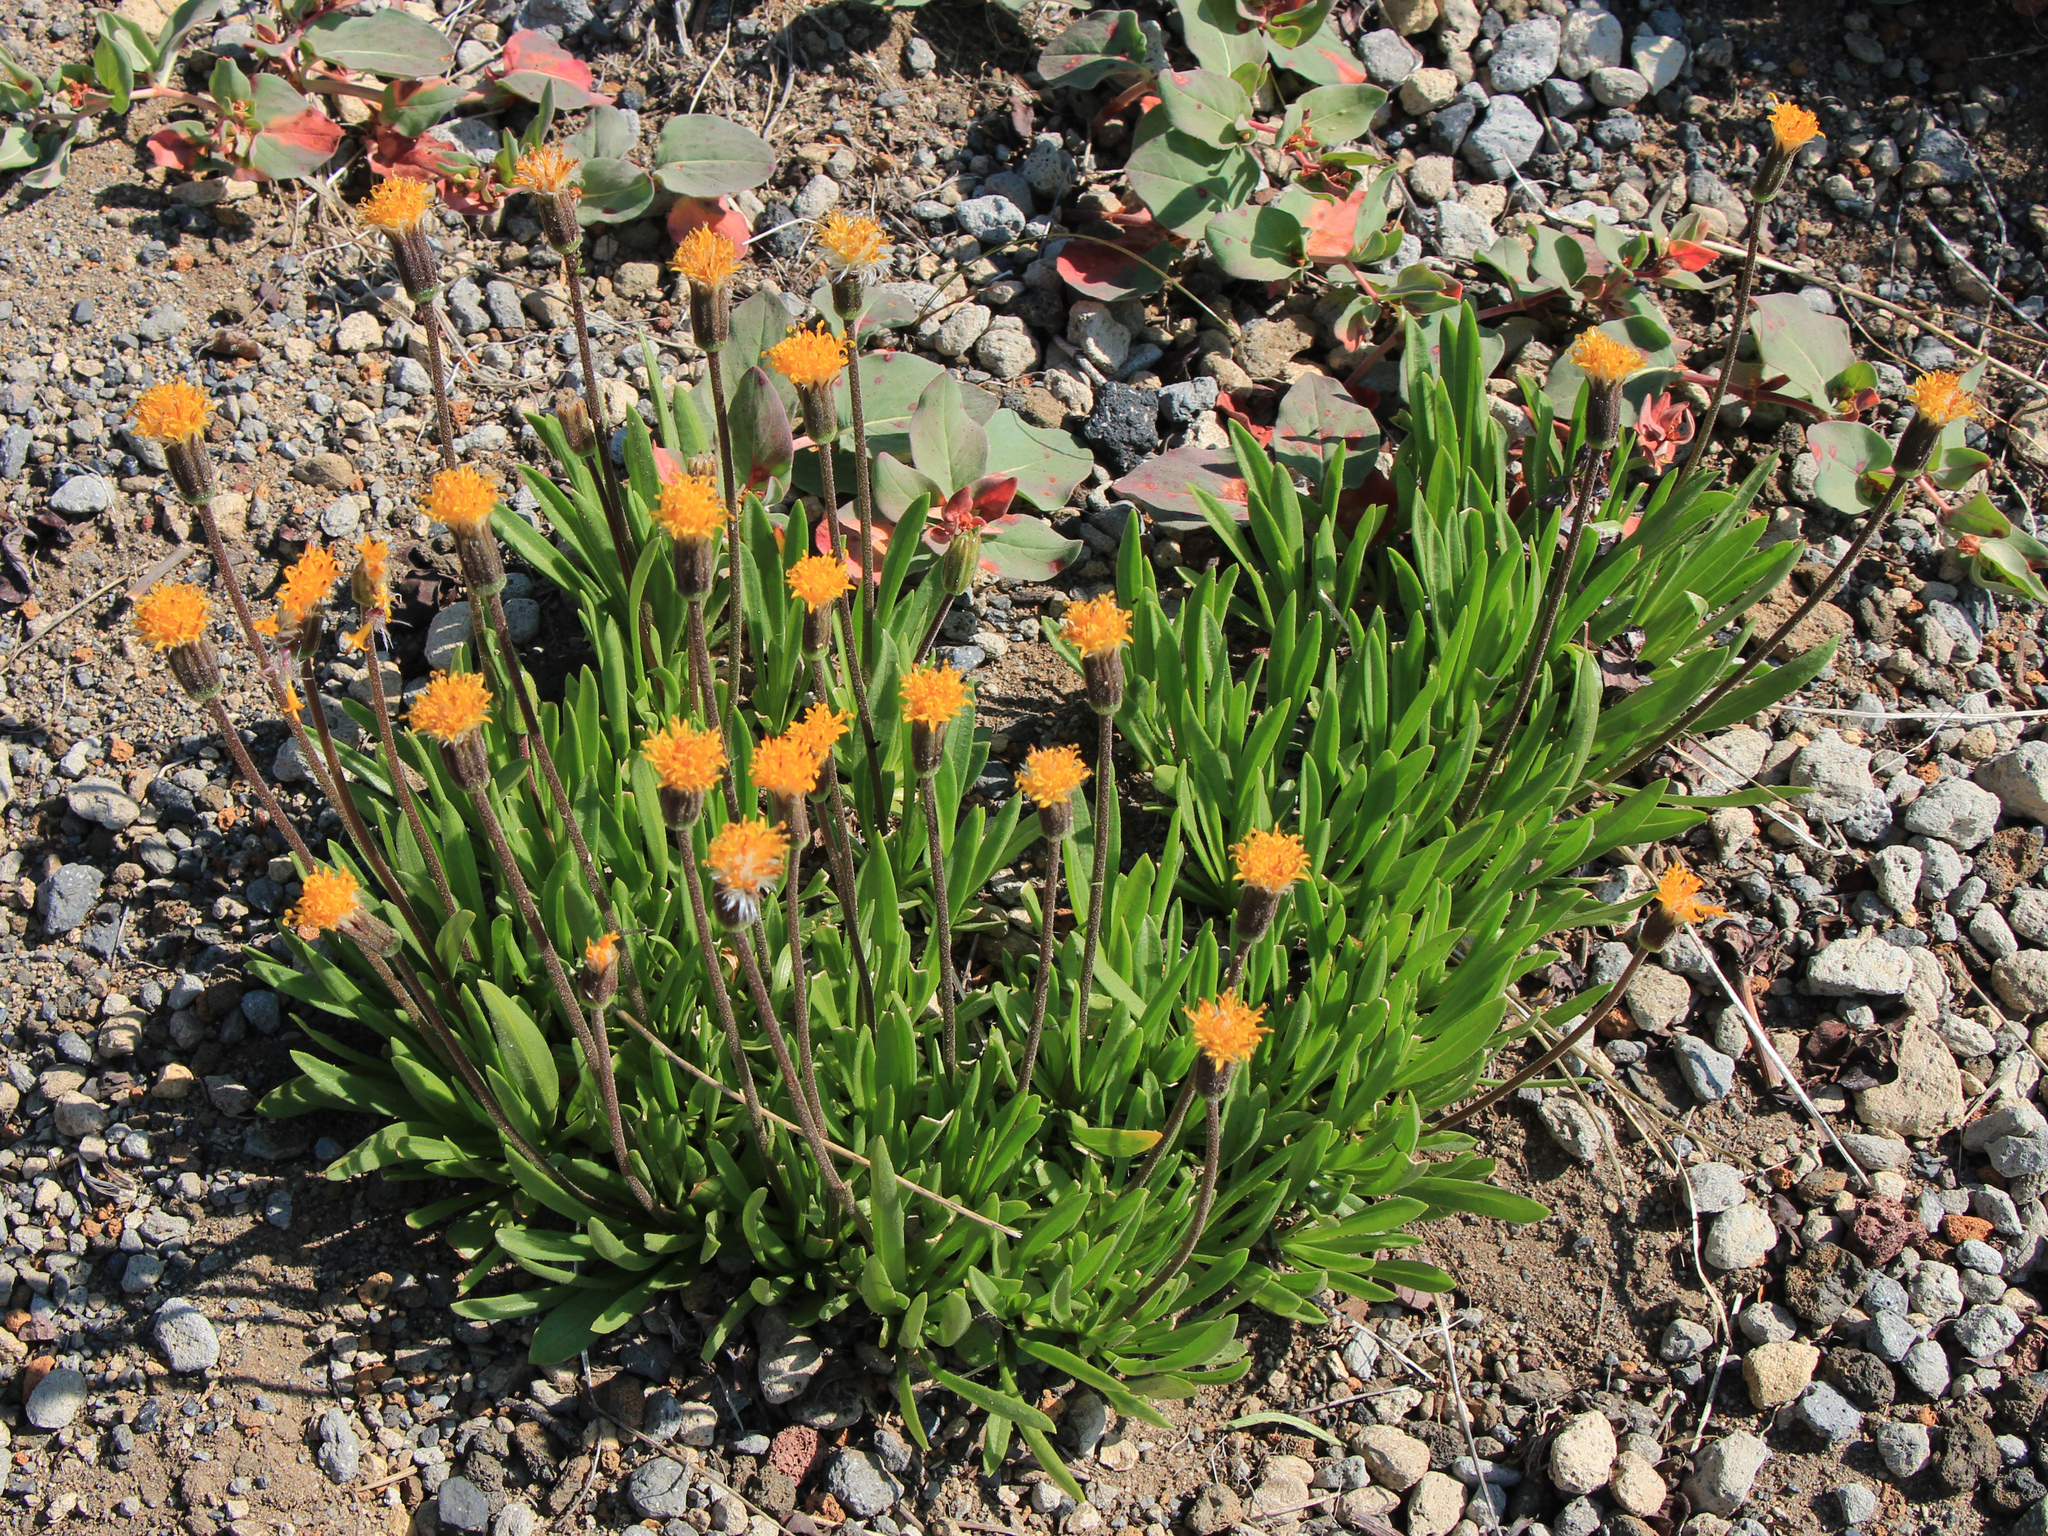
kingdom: Plantae
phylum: Tracheophyta
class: Magnoliopsida
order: Asterales
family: Asteraceae
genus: Raillardella
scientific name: Raillardella scaposa
